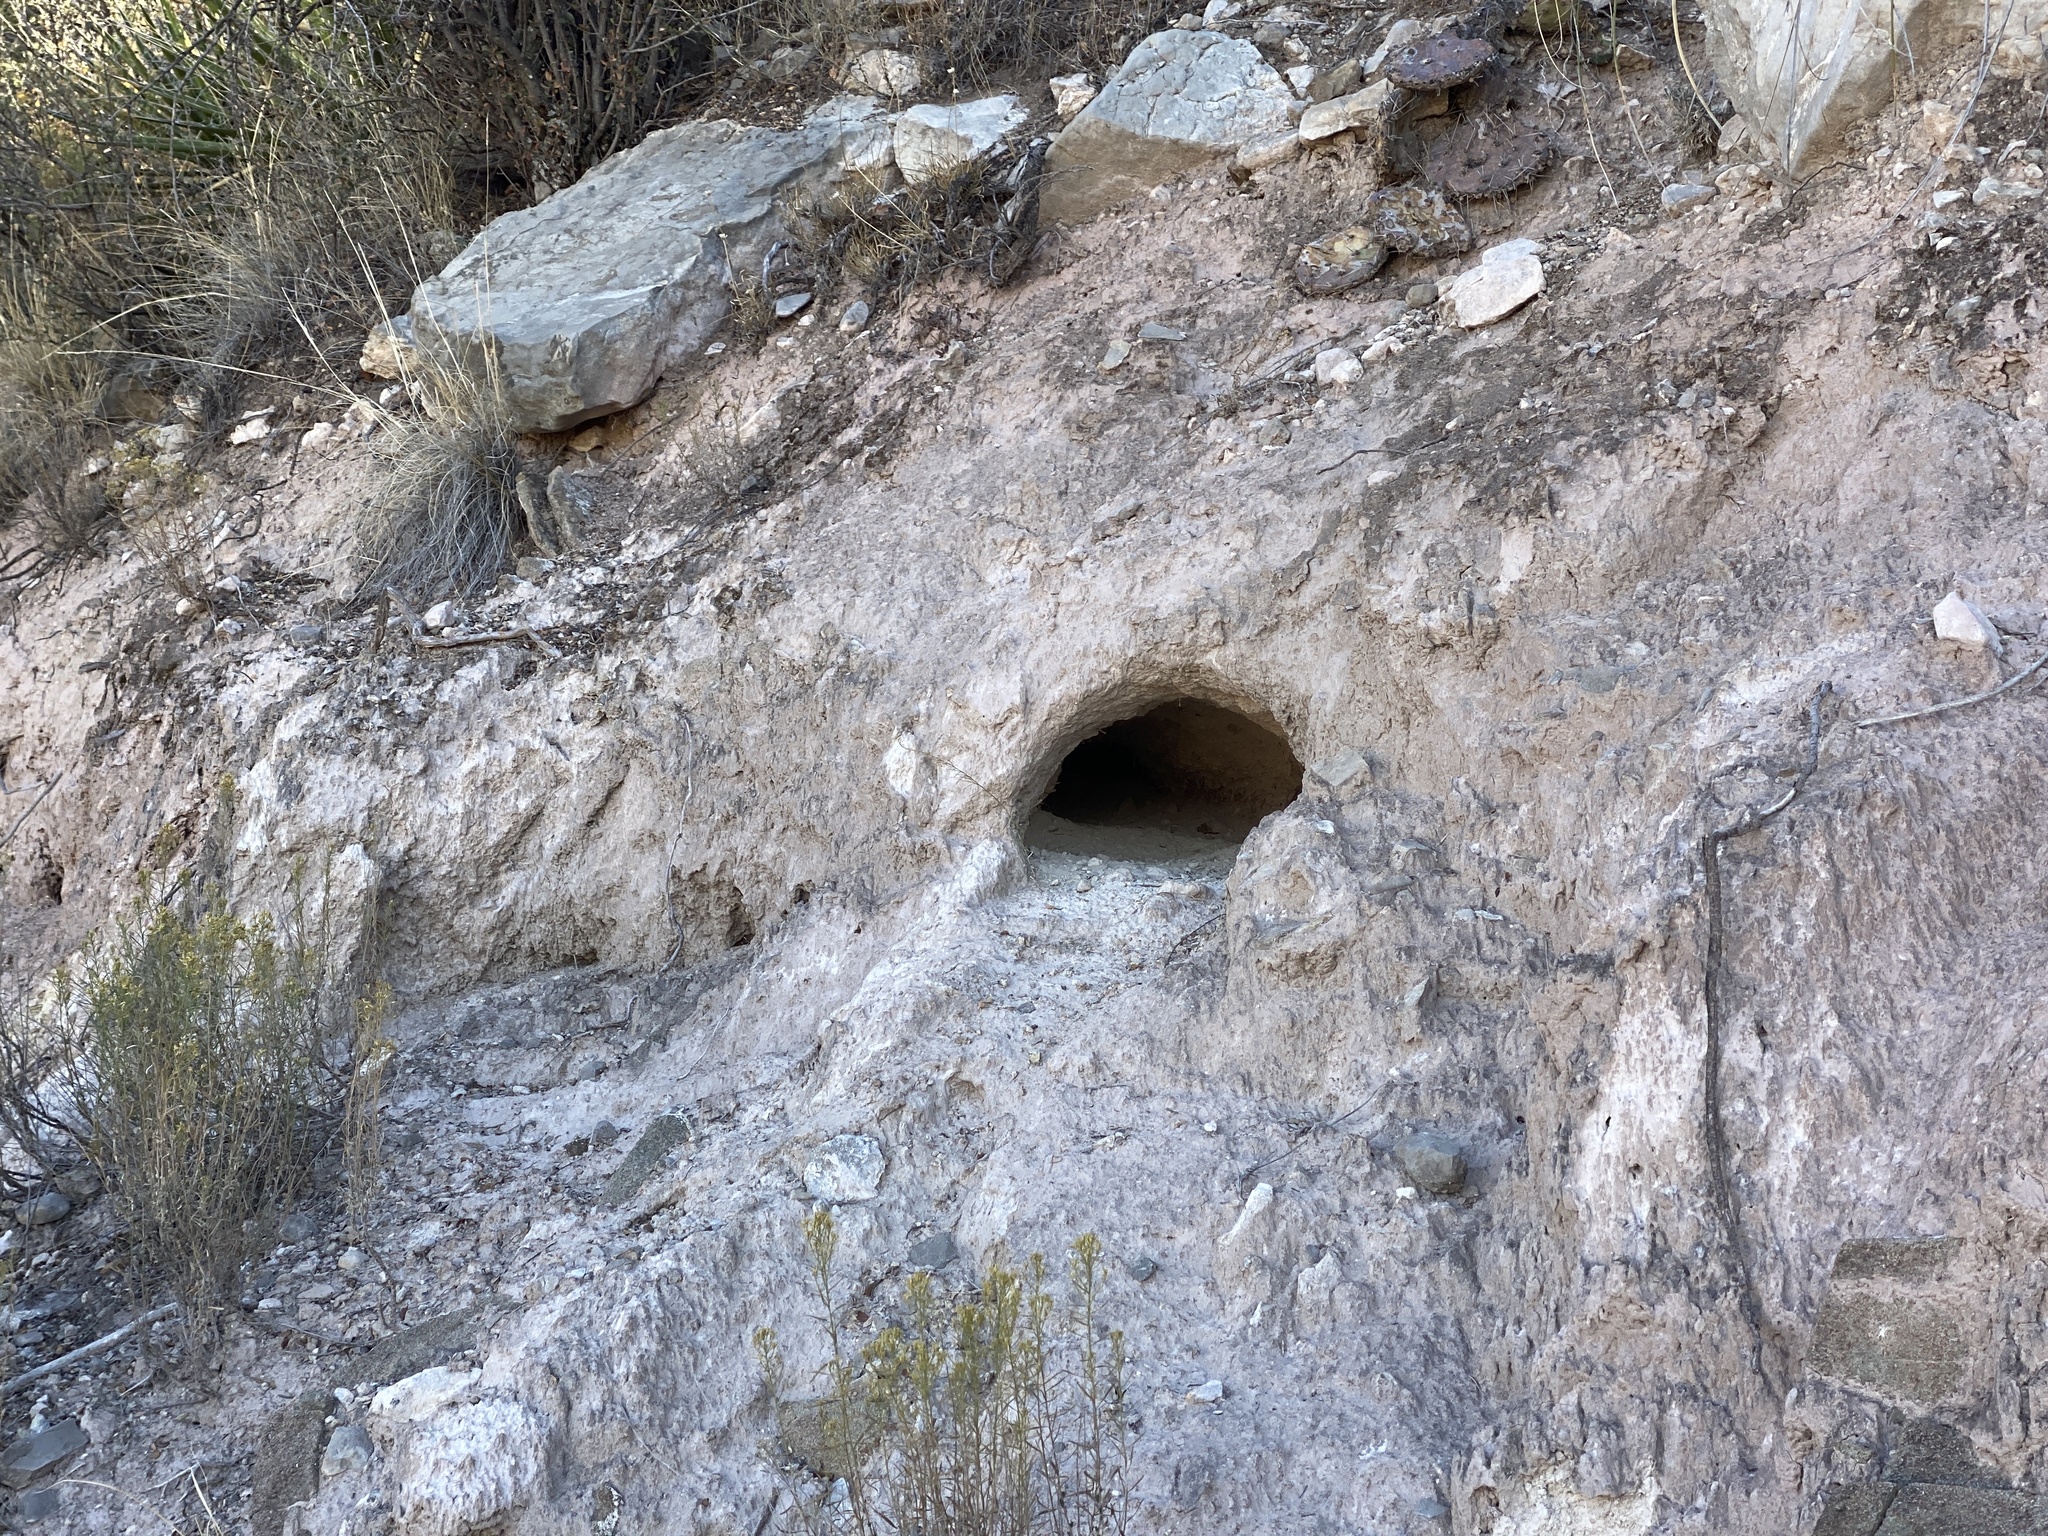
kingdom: Animalia
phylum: Chordata
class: Mammalia
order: Carnivora
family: Mustelidae
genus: Taxidea
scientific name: Taxidea taxus
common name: American badger
